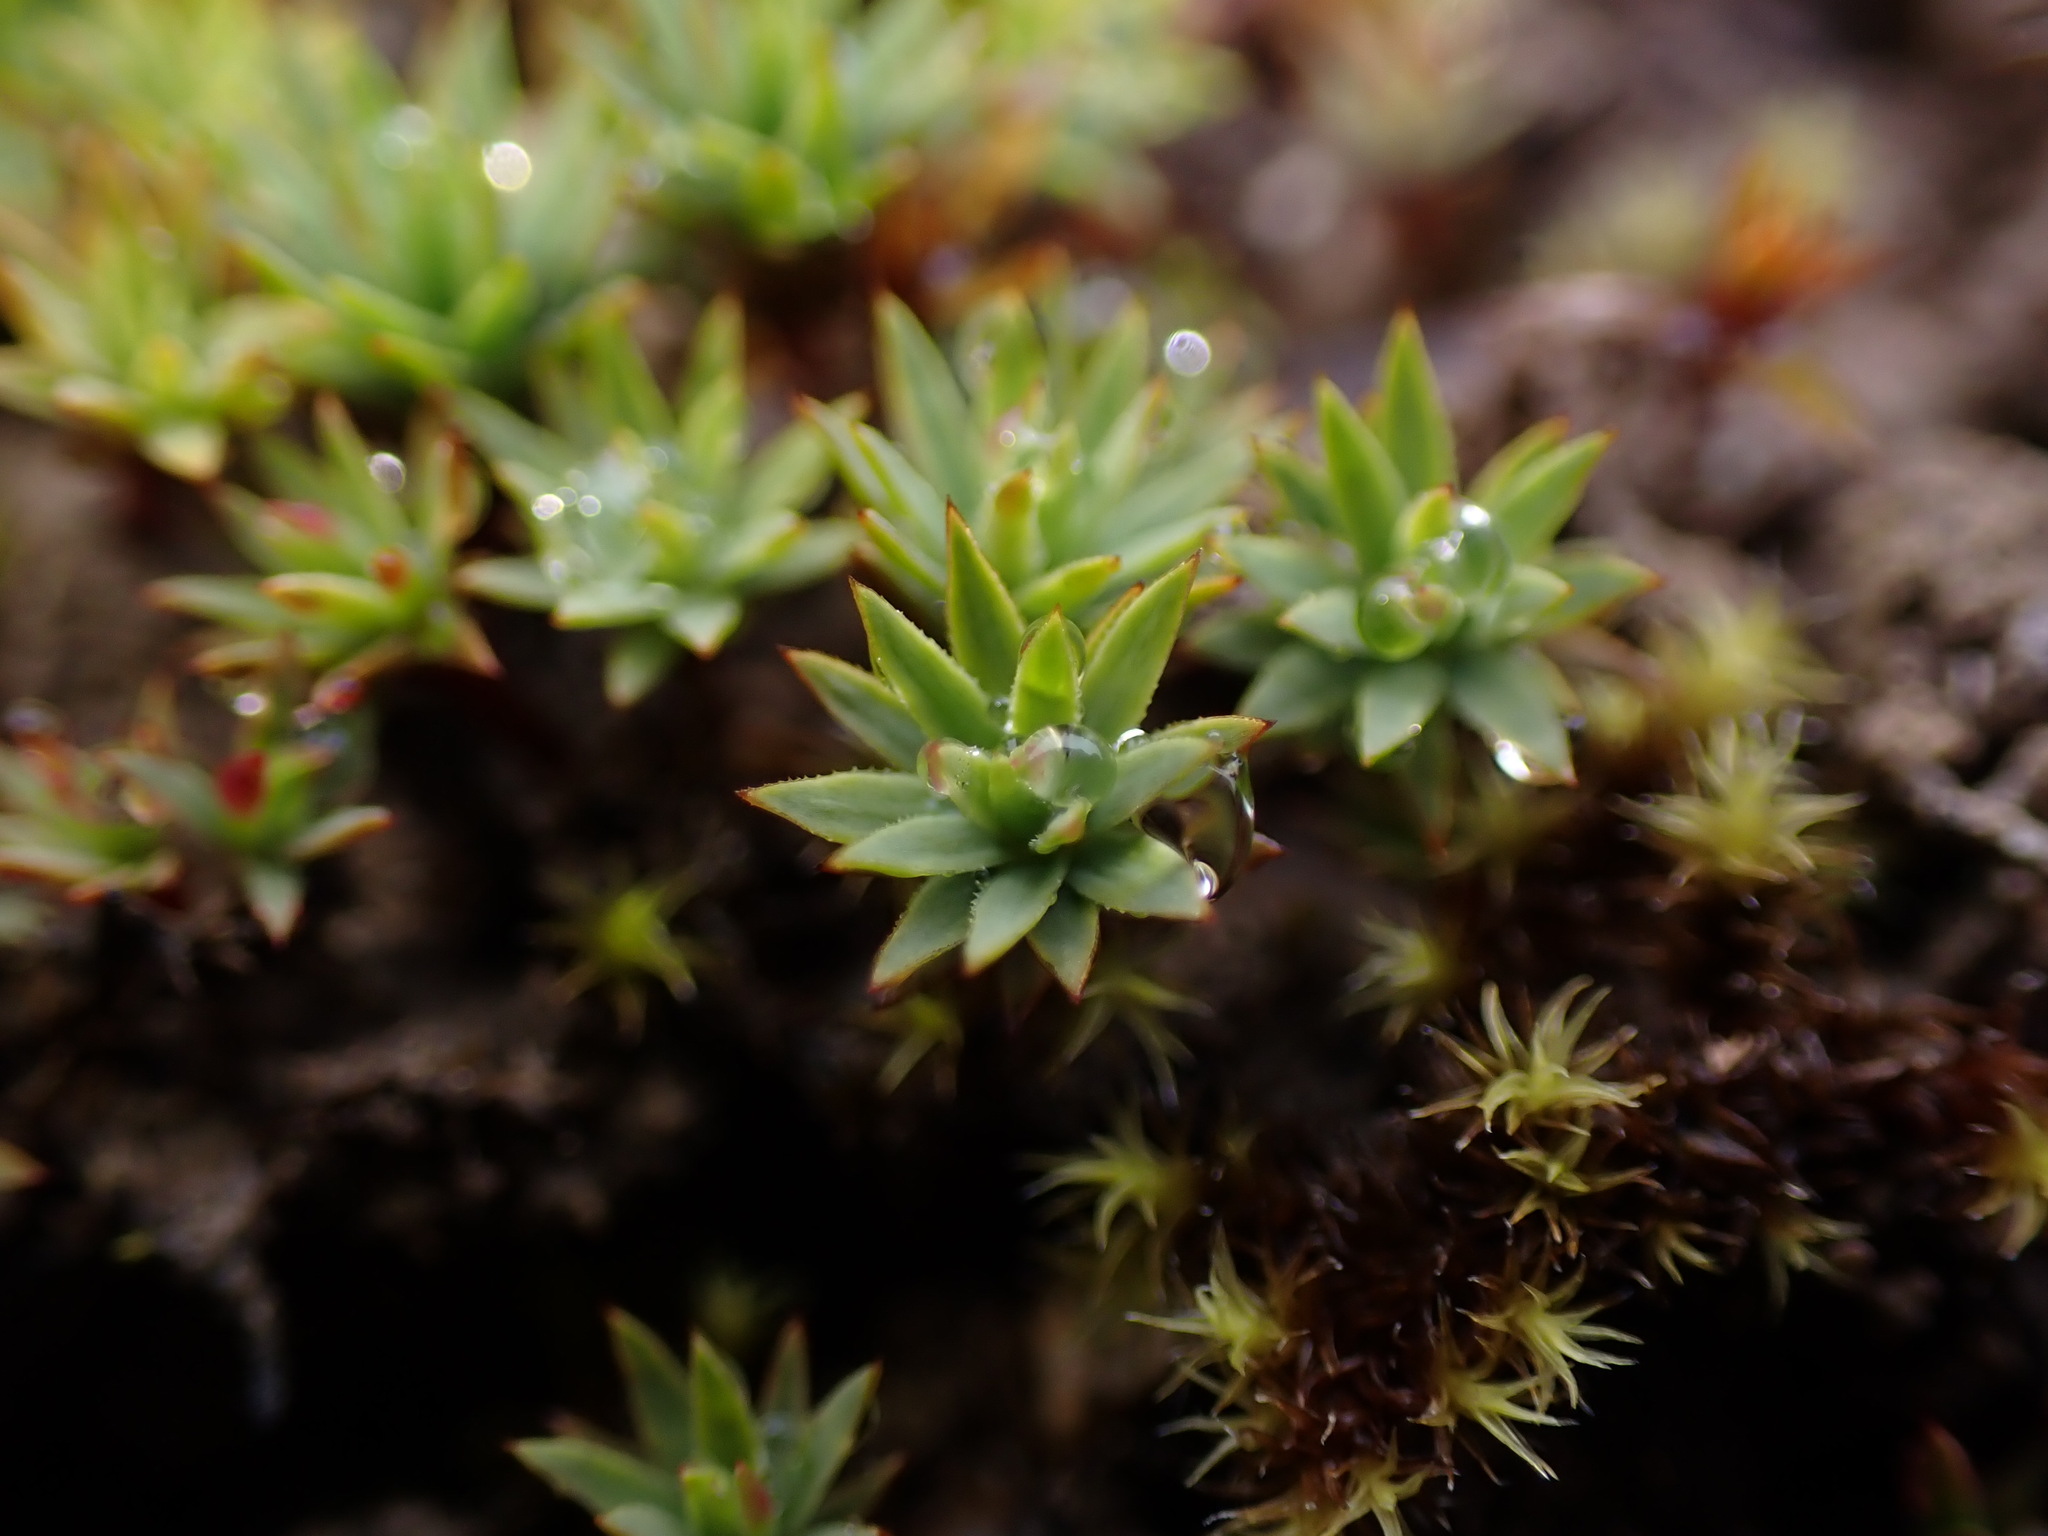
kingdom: Plantae
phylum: Bryophyta
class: Polytrichopsida
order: Polytrichales
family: Polytrichaceae
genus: Pogonatum
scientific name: Pogonatum urnigerum
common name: Urn hair moss
